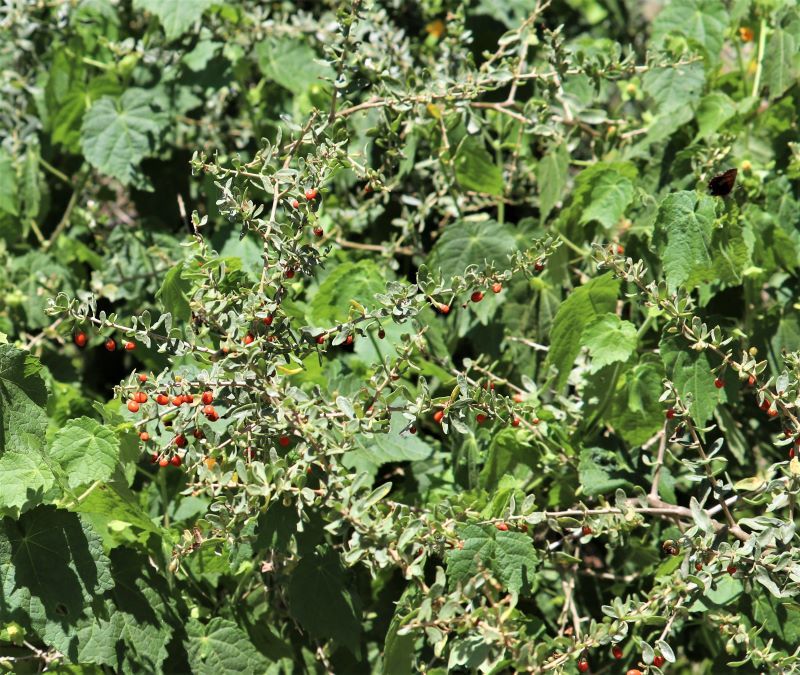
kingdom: Plantae
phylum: Tracheophyta
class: Magnoliopsida
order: Solanales
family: Solanaceae
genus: Lycium
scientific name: Lycium ferocissimum
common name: African boxthorn
